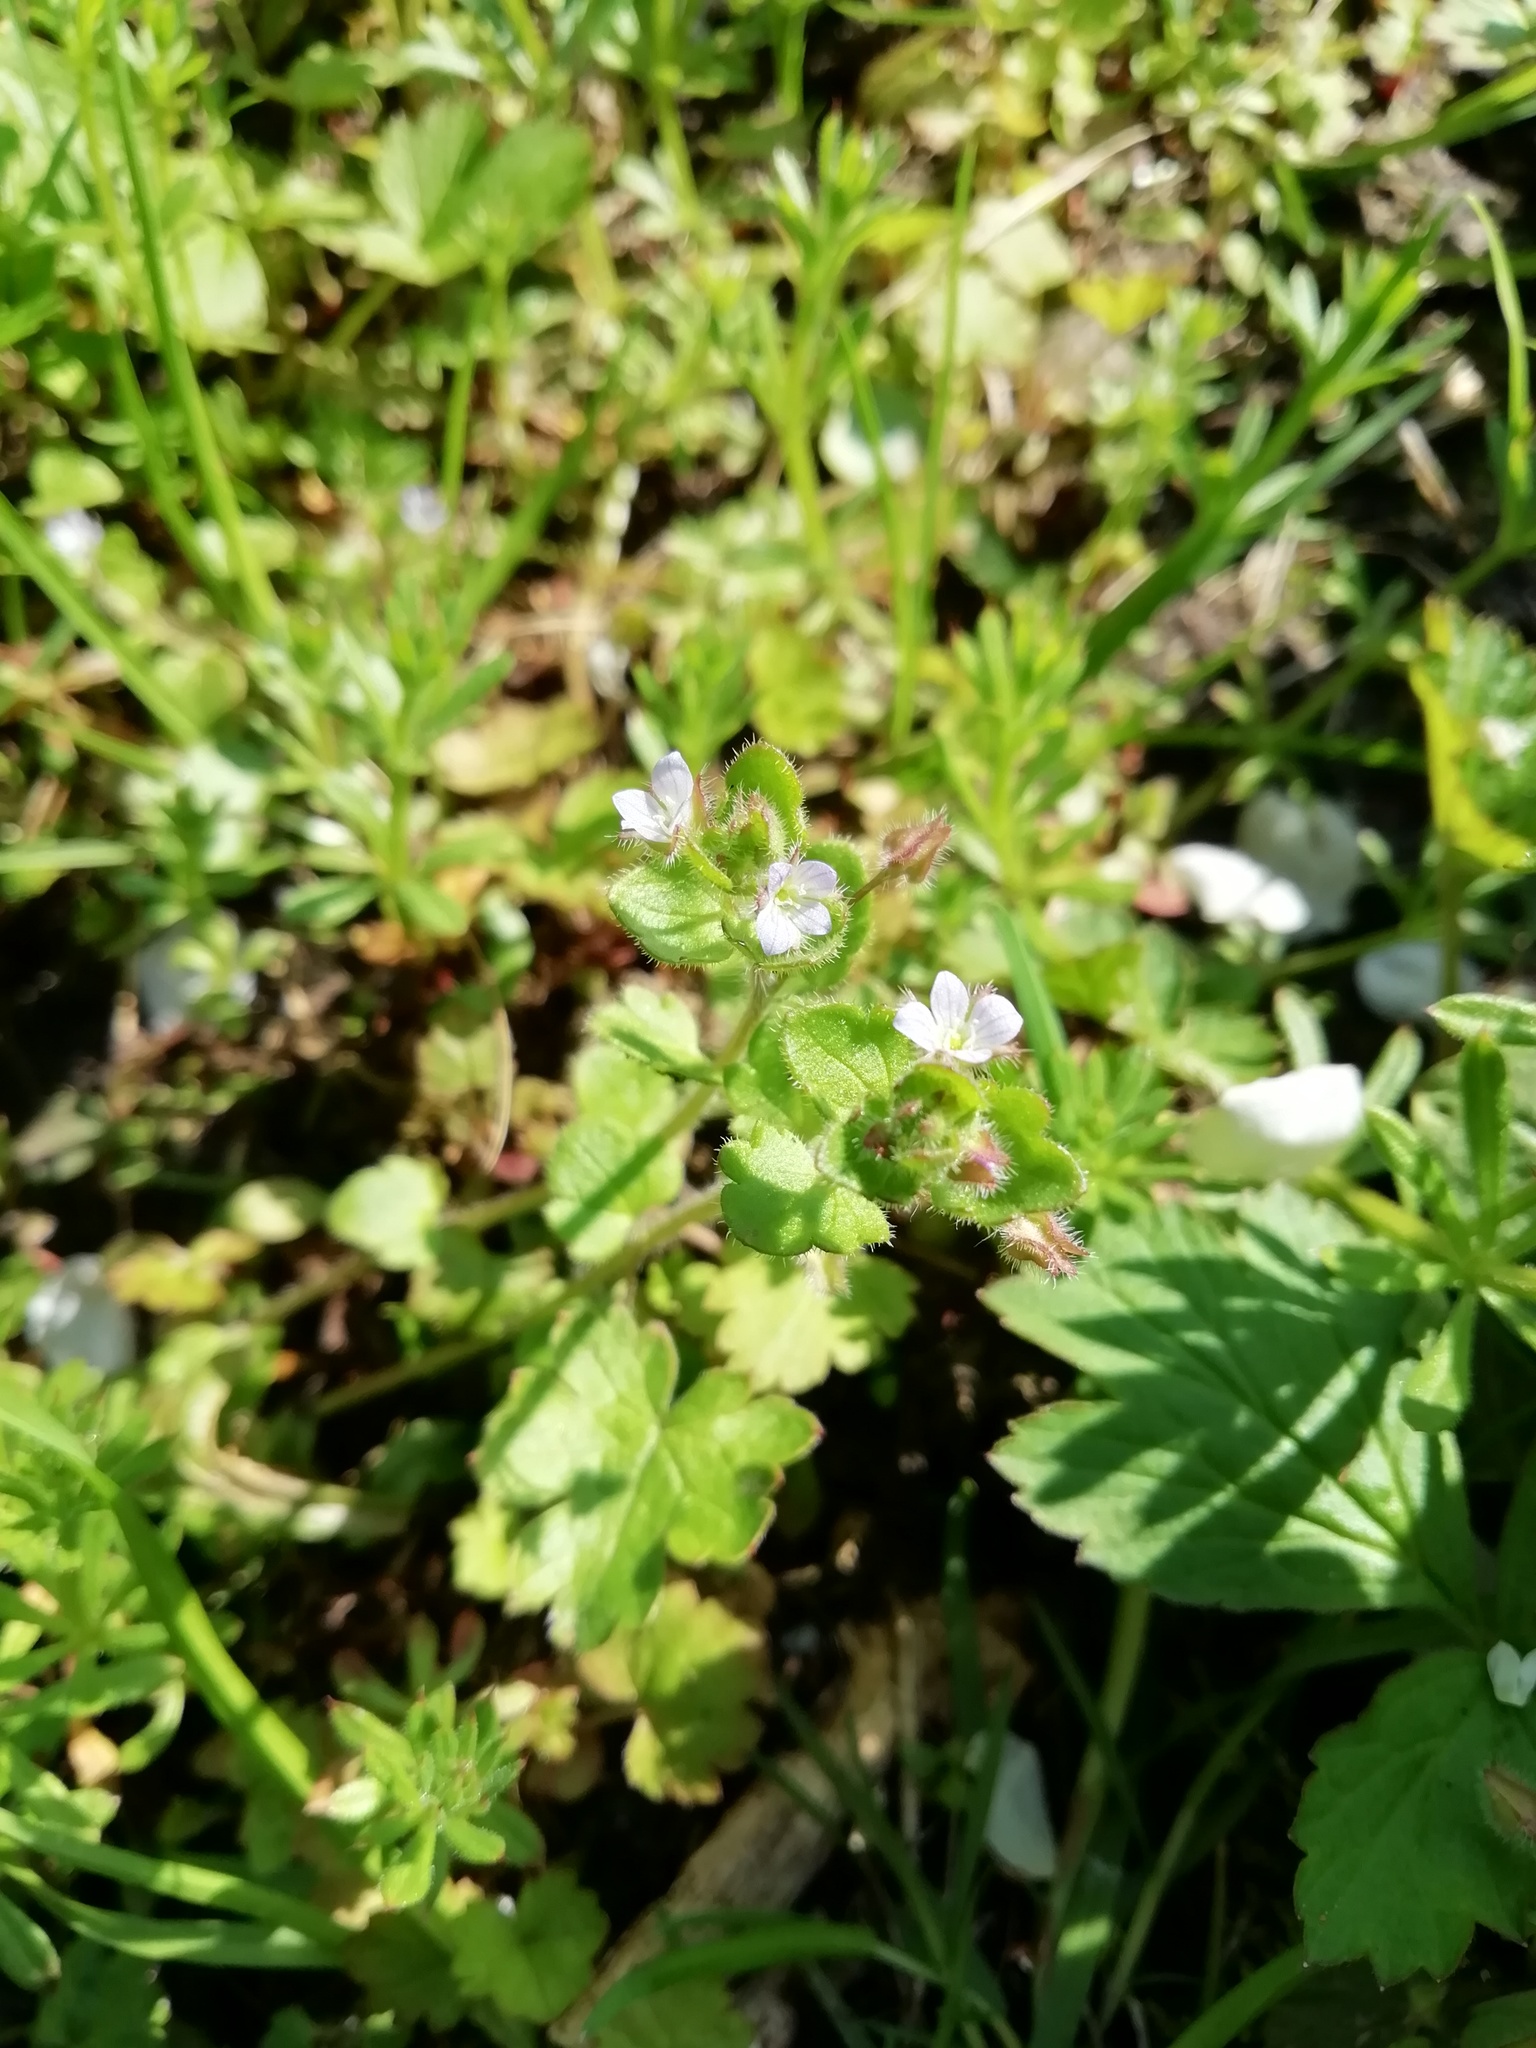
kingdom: Plantae
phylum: Tracheophyta
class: Magnoliopsida
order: Lamiales
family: Plantaginaceae
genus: Veronica
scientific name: Veronica hederifolia
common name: Ivy-leaved speedwell
